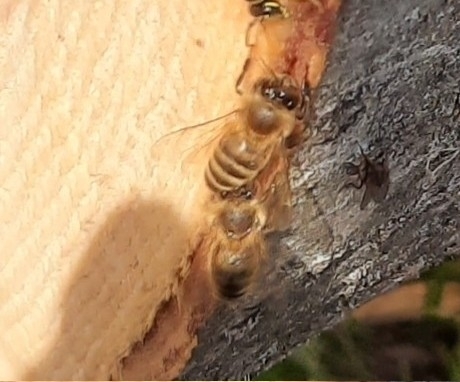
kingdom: Animalia
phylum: Arthropoda
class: Insecta
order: Hymenoptera
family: Apidae
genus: Apis
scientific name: Apis mellifera
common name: Honey bee
